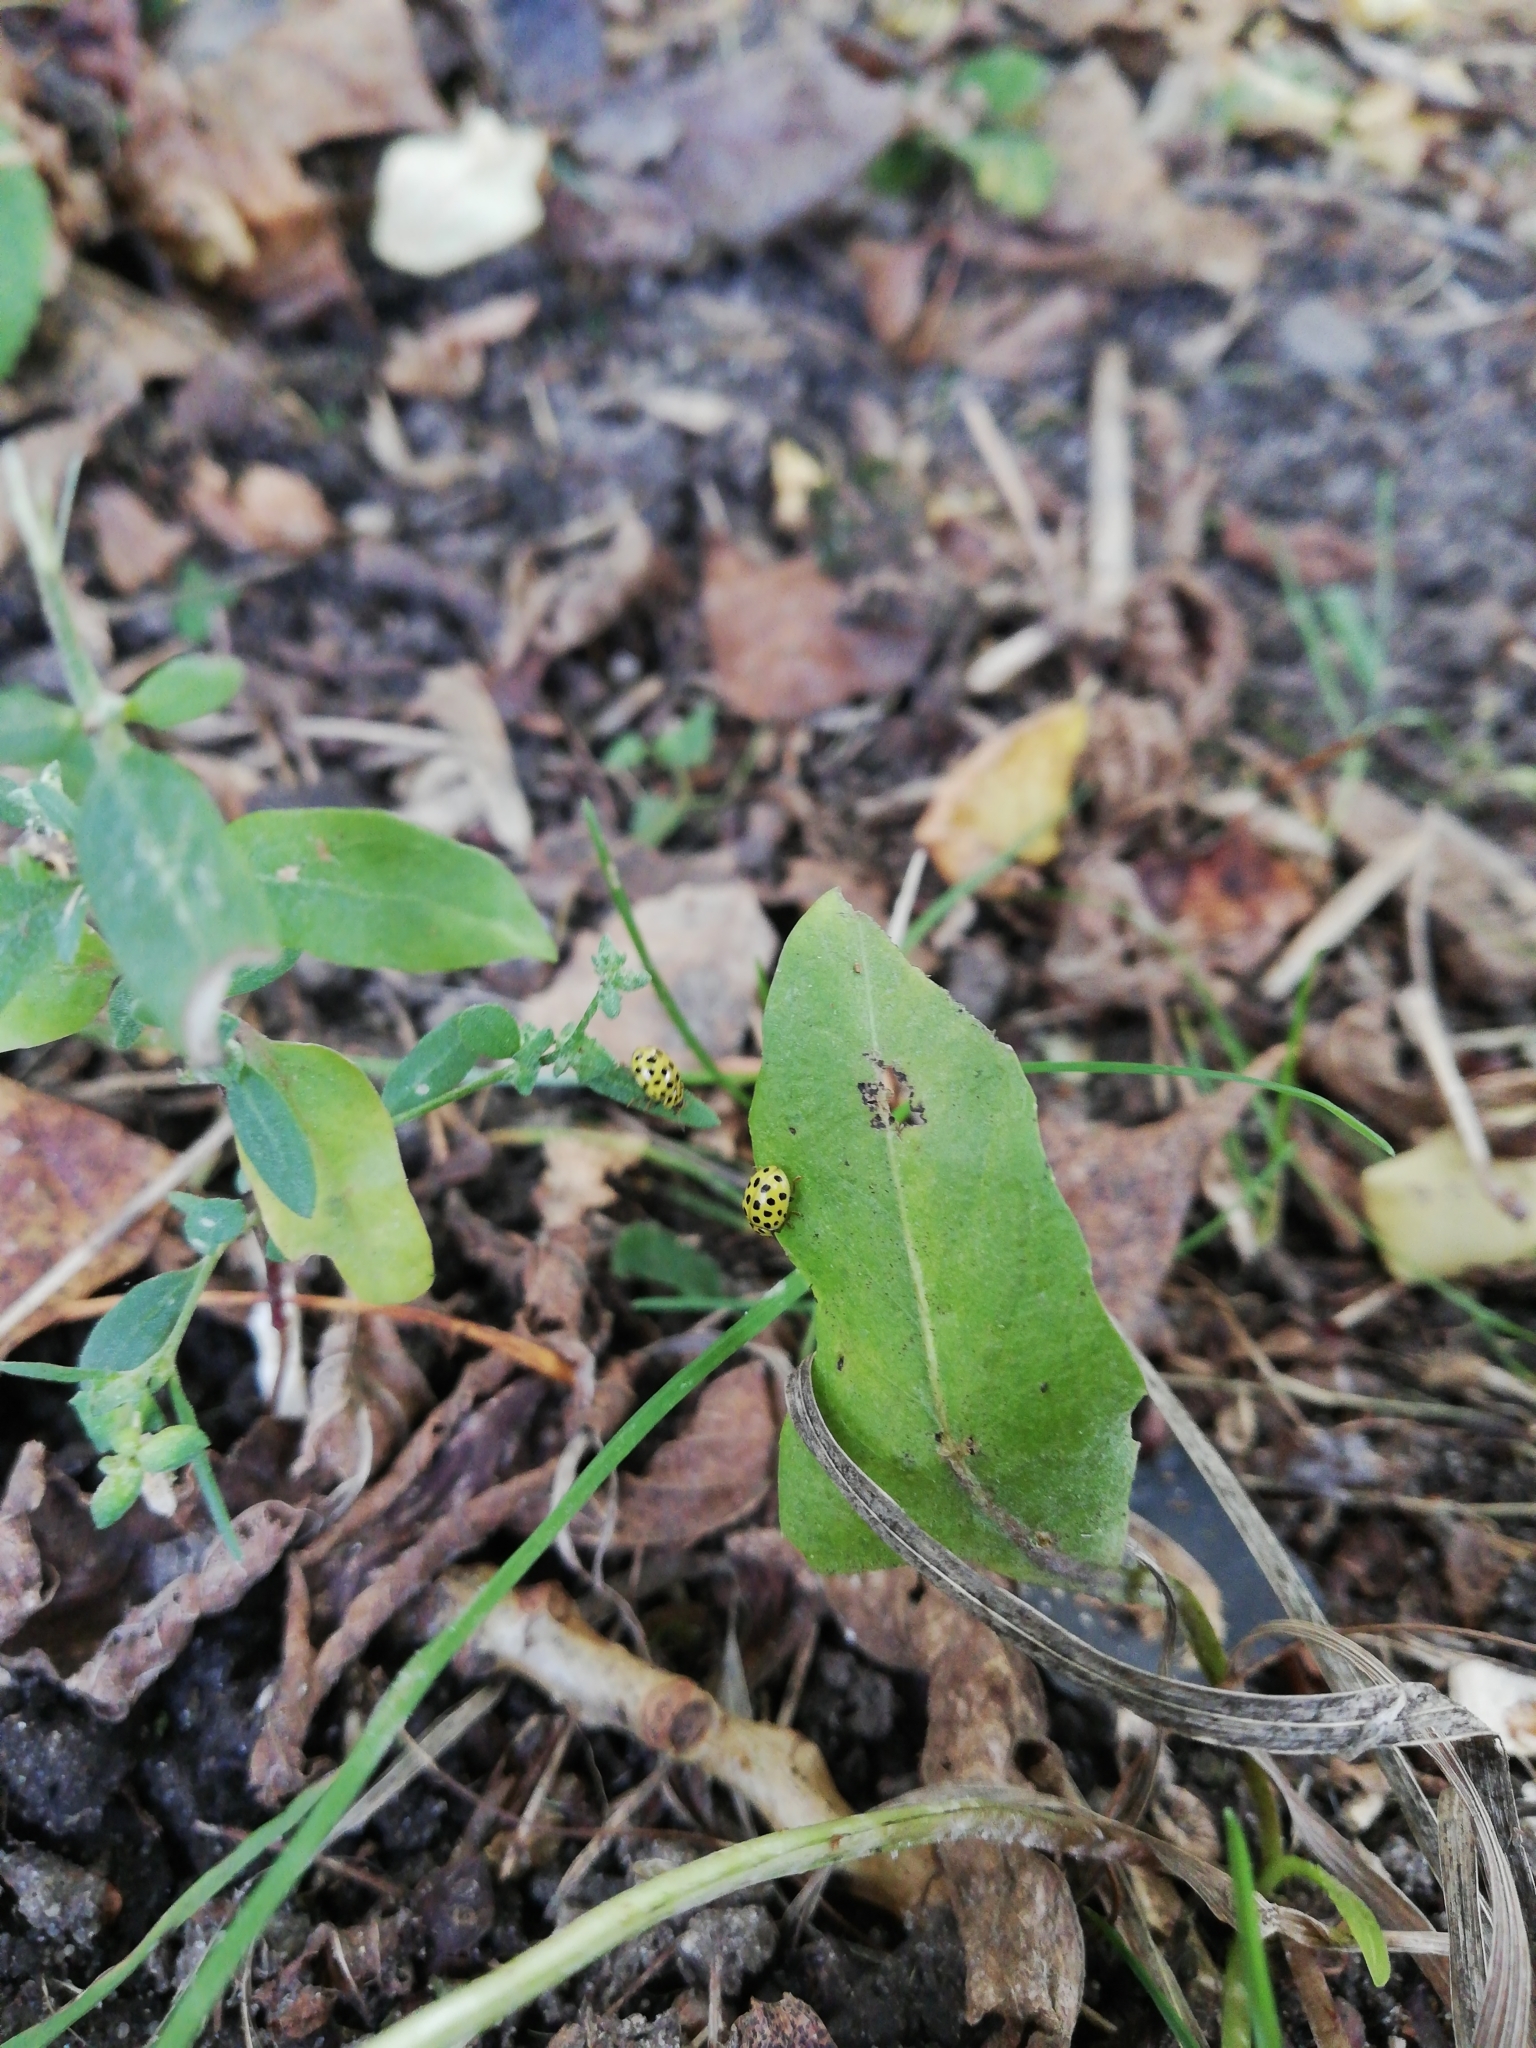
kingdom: Animalia
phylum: Arthropoda
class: Insecta
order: Coleoptera
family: Coccinellidae
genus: Psyllobora
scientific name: Psyllobora vigintiduopunctata
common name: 22-spot ladybird
